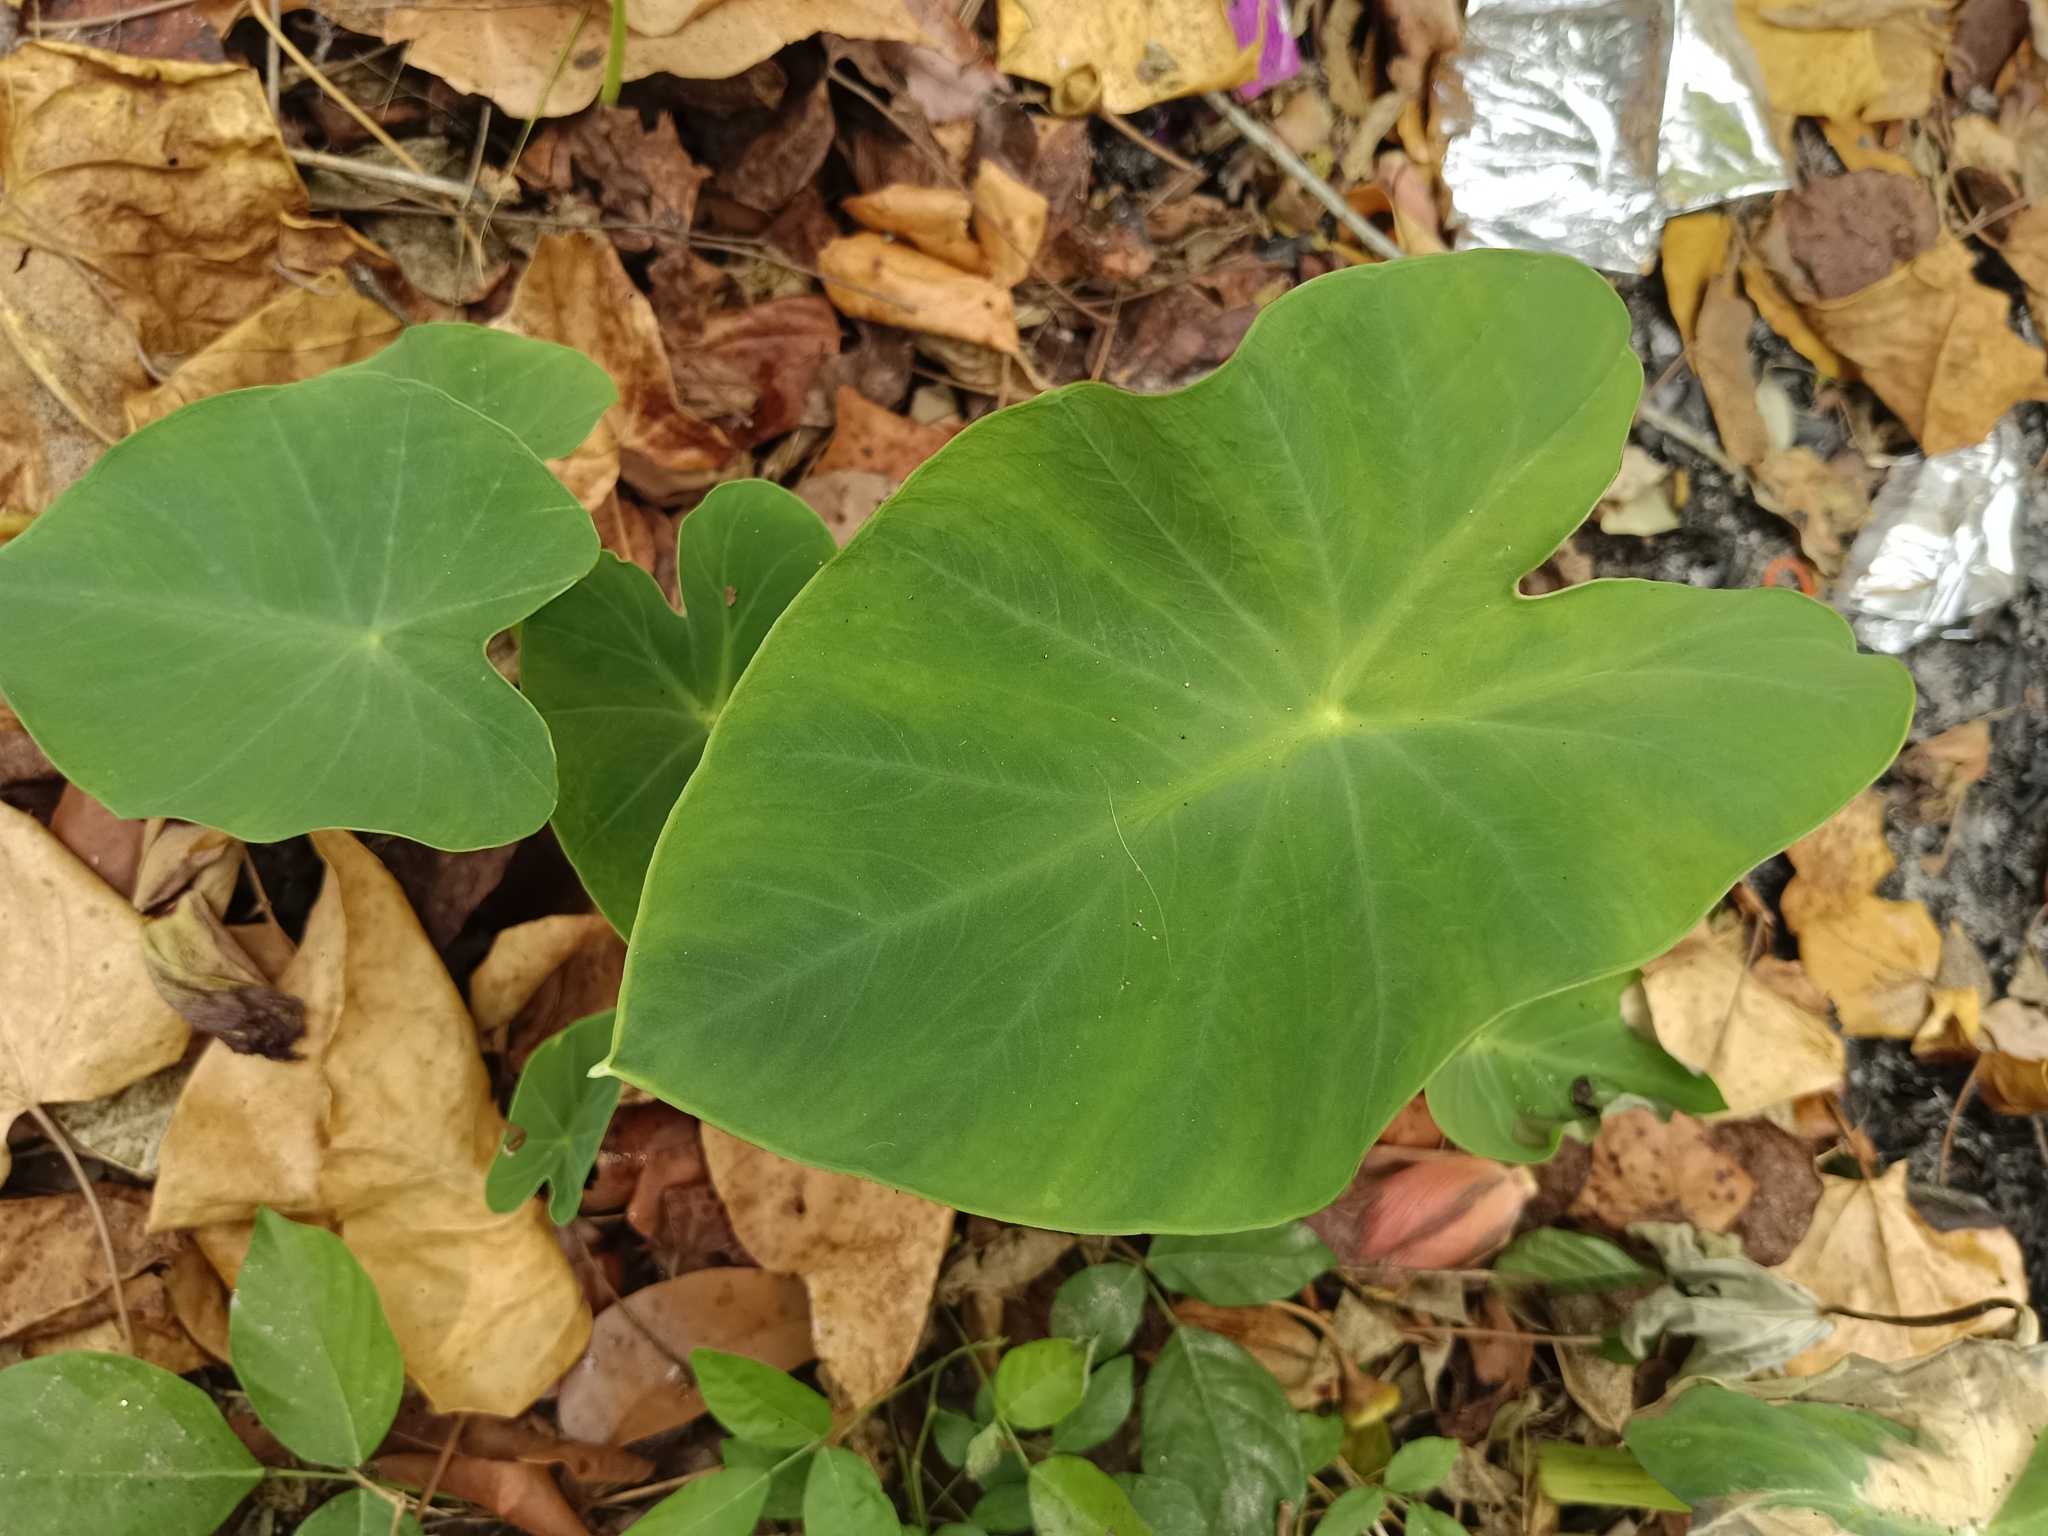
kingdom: Plantae
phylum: Tracheophyta
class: Liliopsida
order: Alismatales
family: Araceae
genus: Colocasia
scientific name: Colocasia esculenta
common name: Taro
